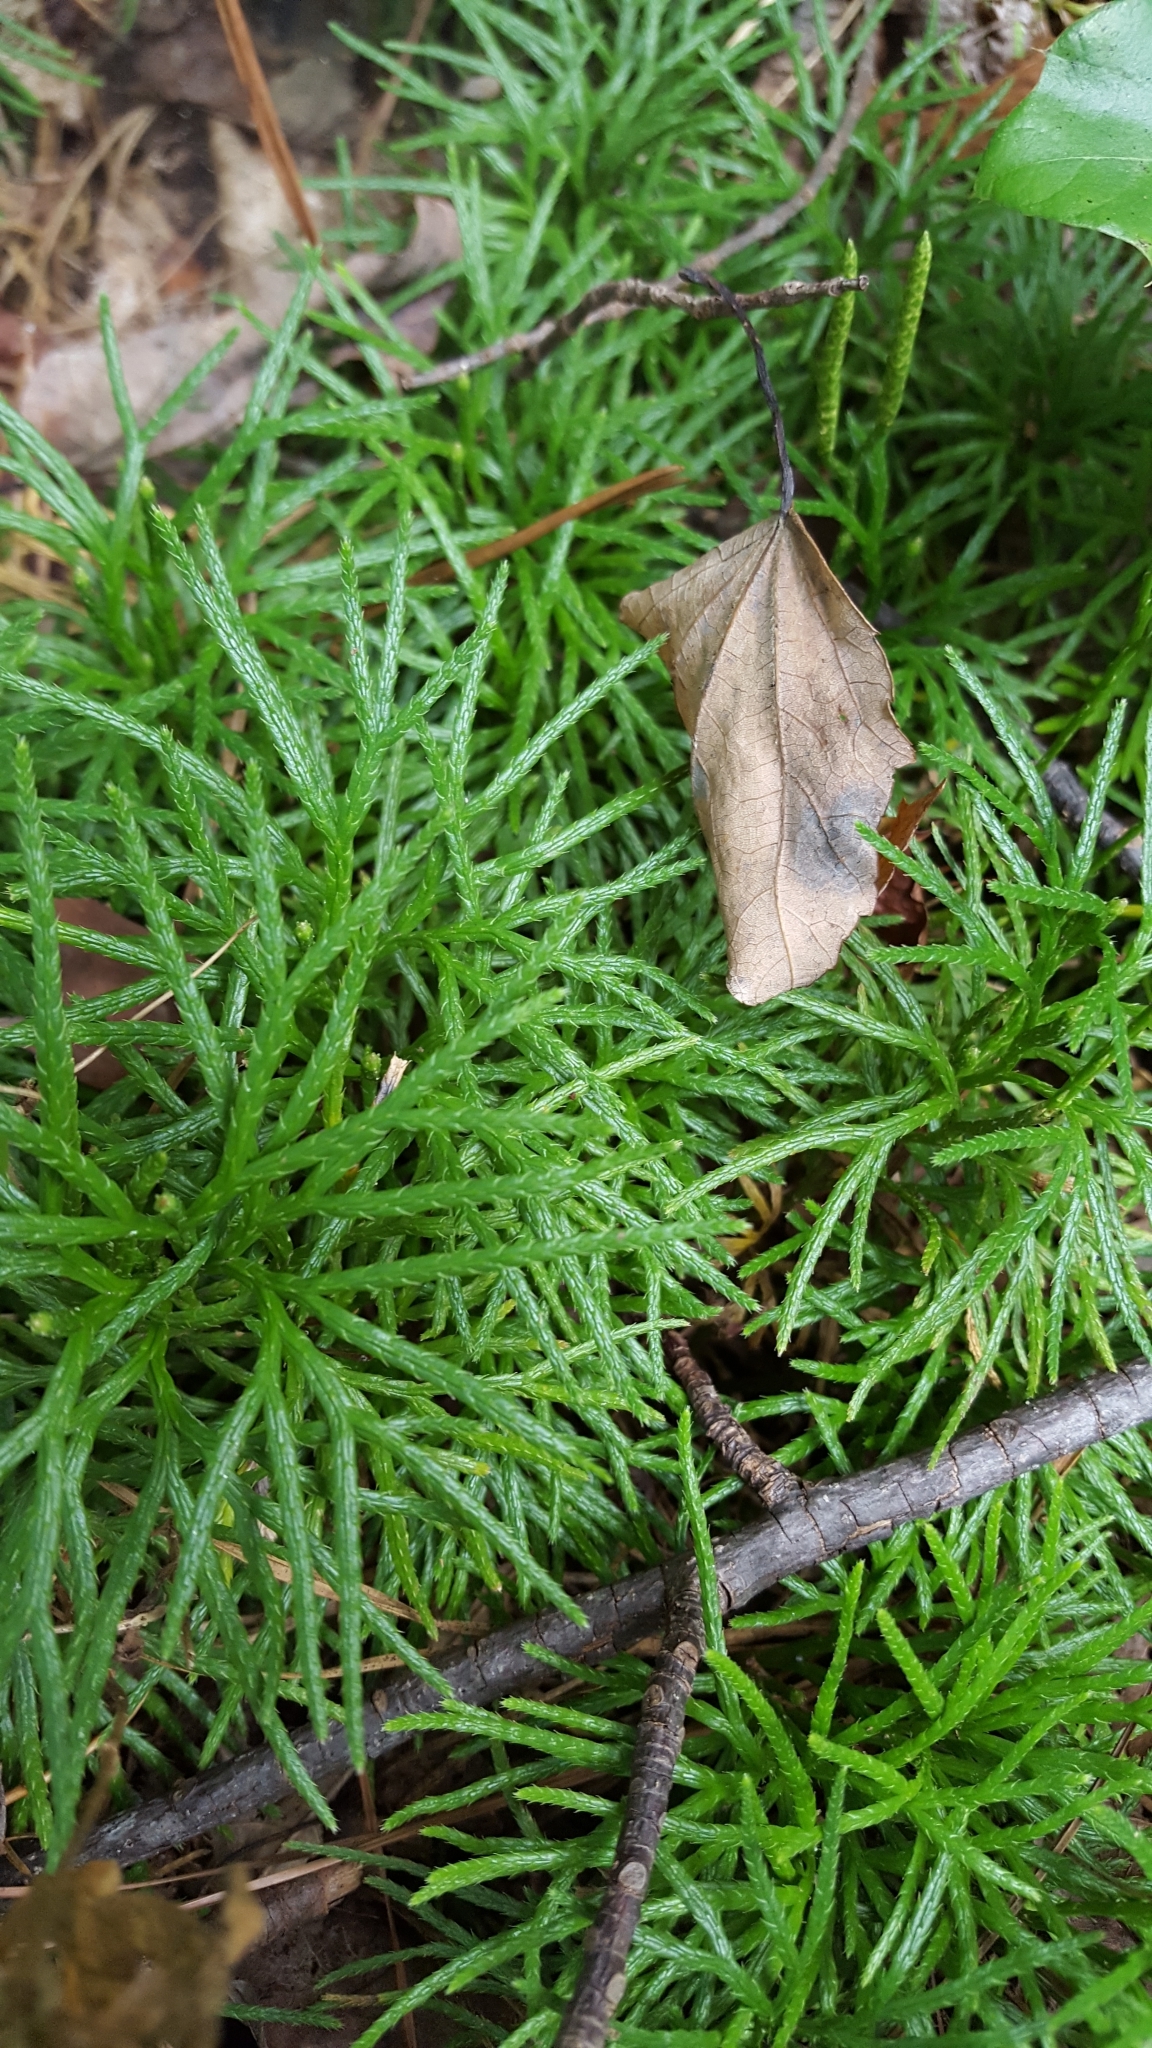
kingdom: Plantae
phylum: Tracheophyta
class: Lycopodiopsida
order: Lycopodiales
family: Lycopodiaceae
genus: Diphasiastrum
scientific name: Diphasiastrum digitatum
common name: Southern running-pine
